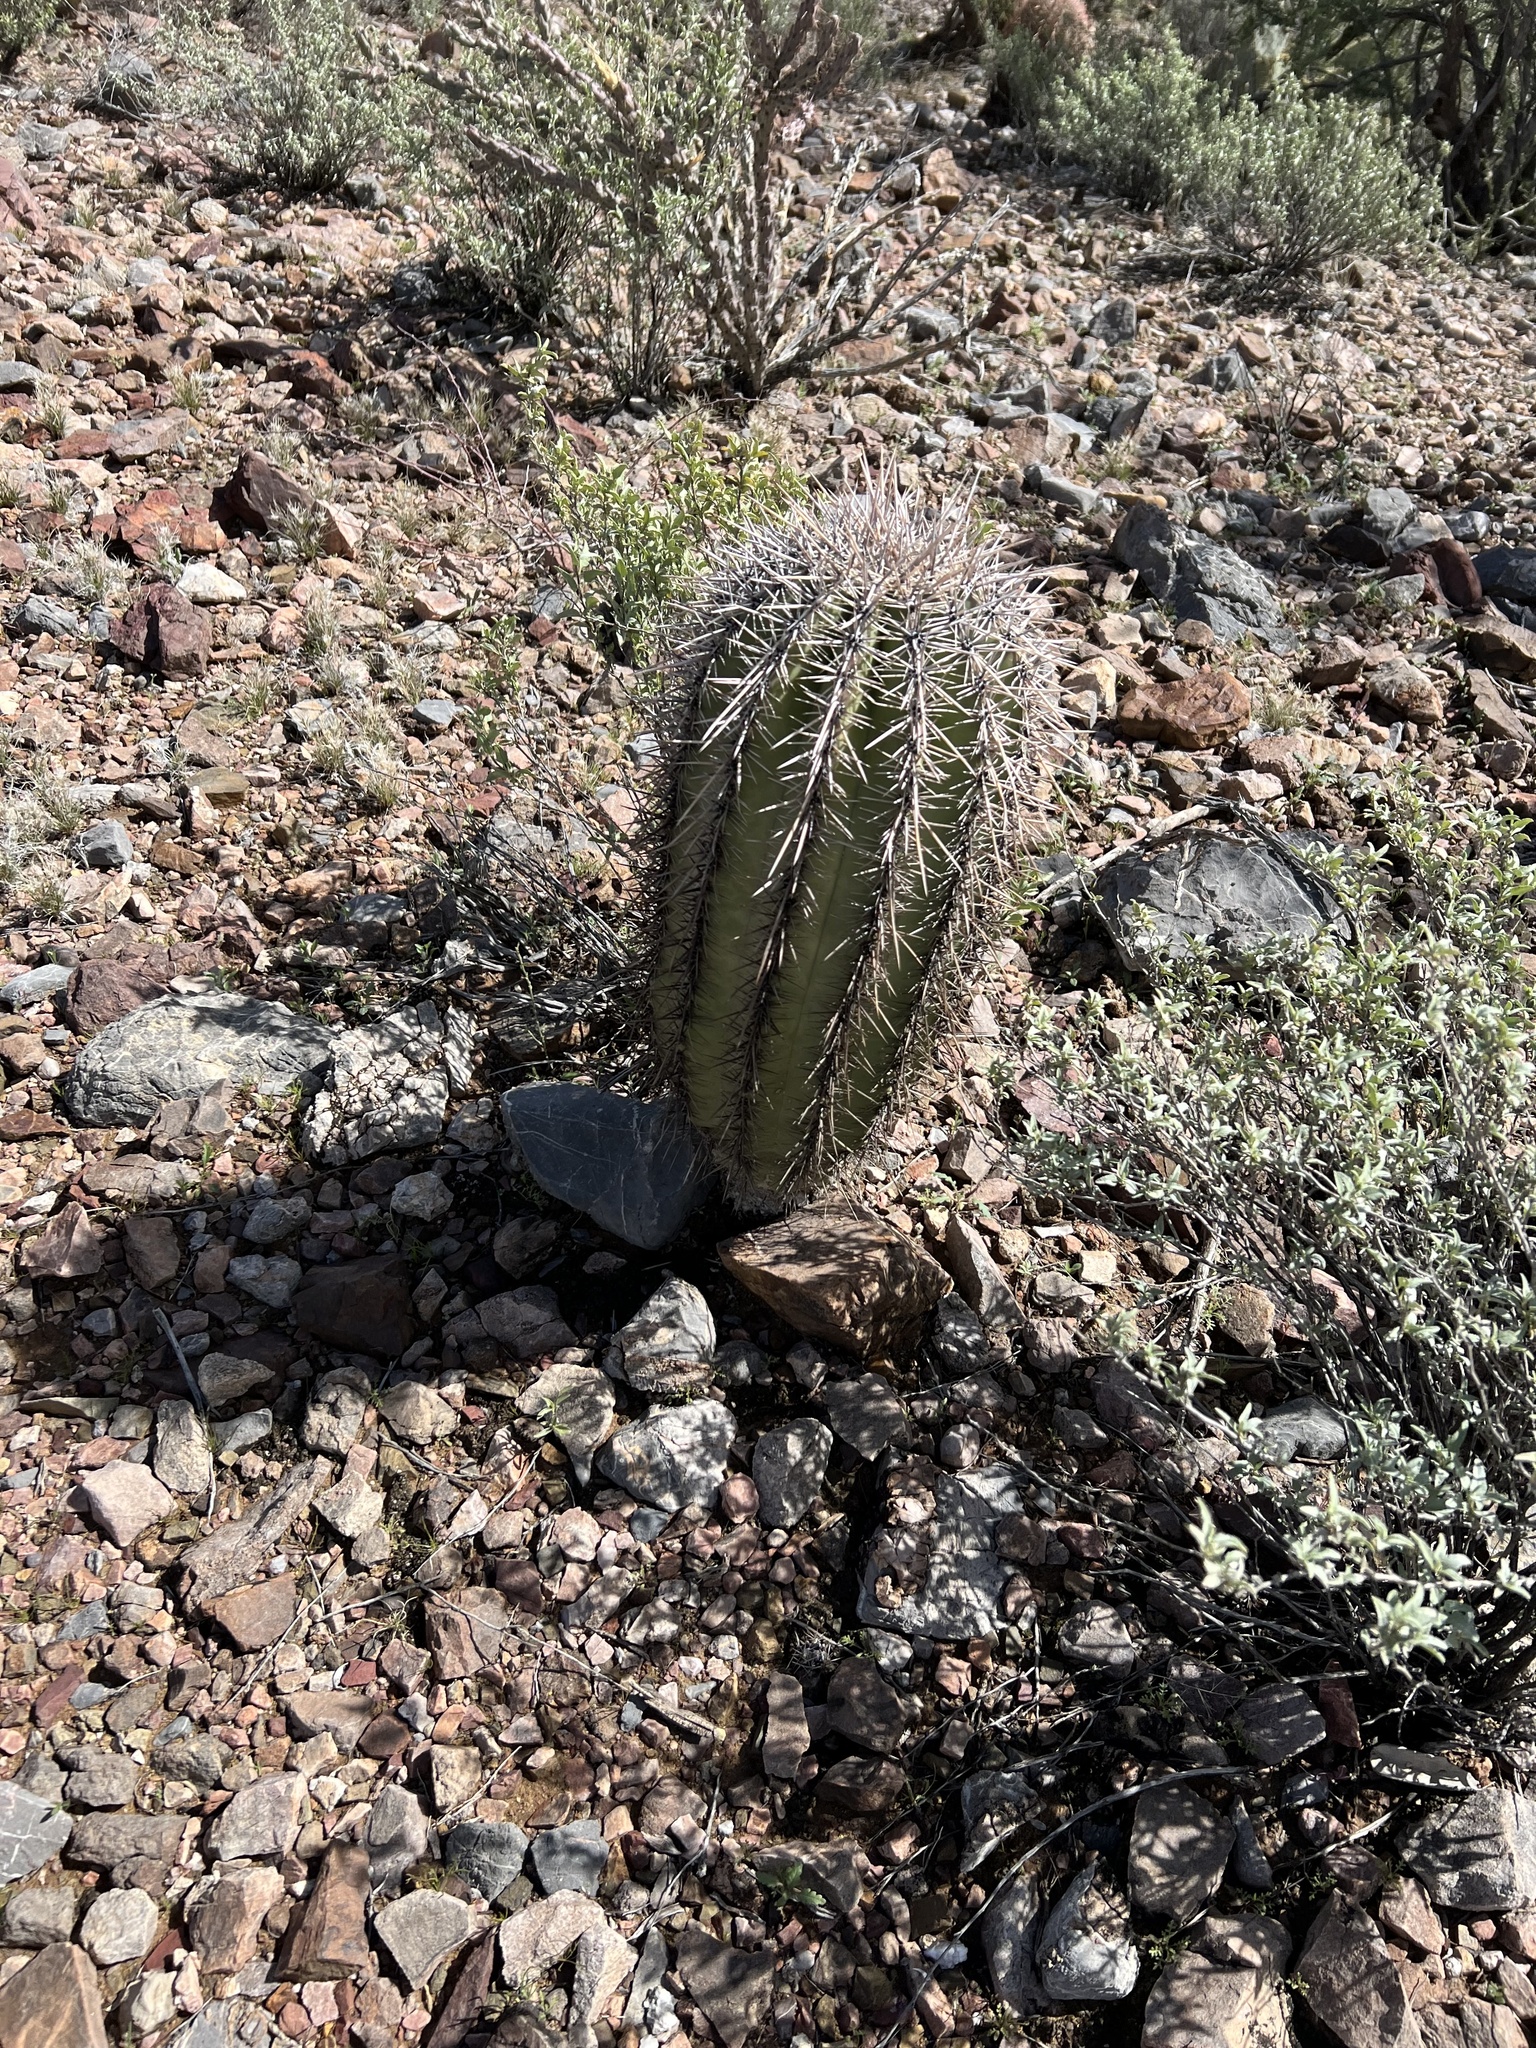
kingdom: Plantae
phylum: Tracheophyta
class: Magnoliopsida
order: Caryophyllales
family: Cactaceae
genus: Carnegiea
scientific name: Carnegiea gigantea
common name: Saguaro
